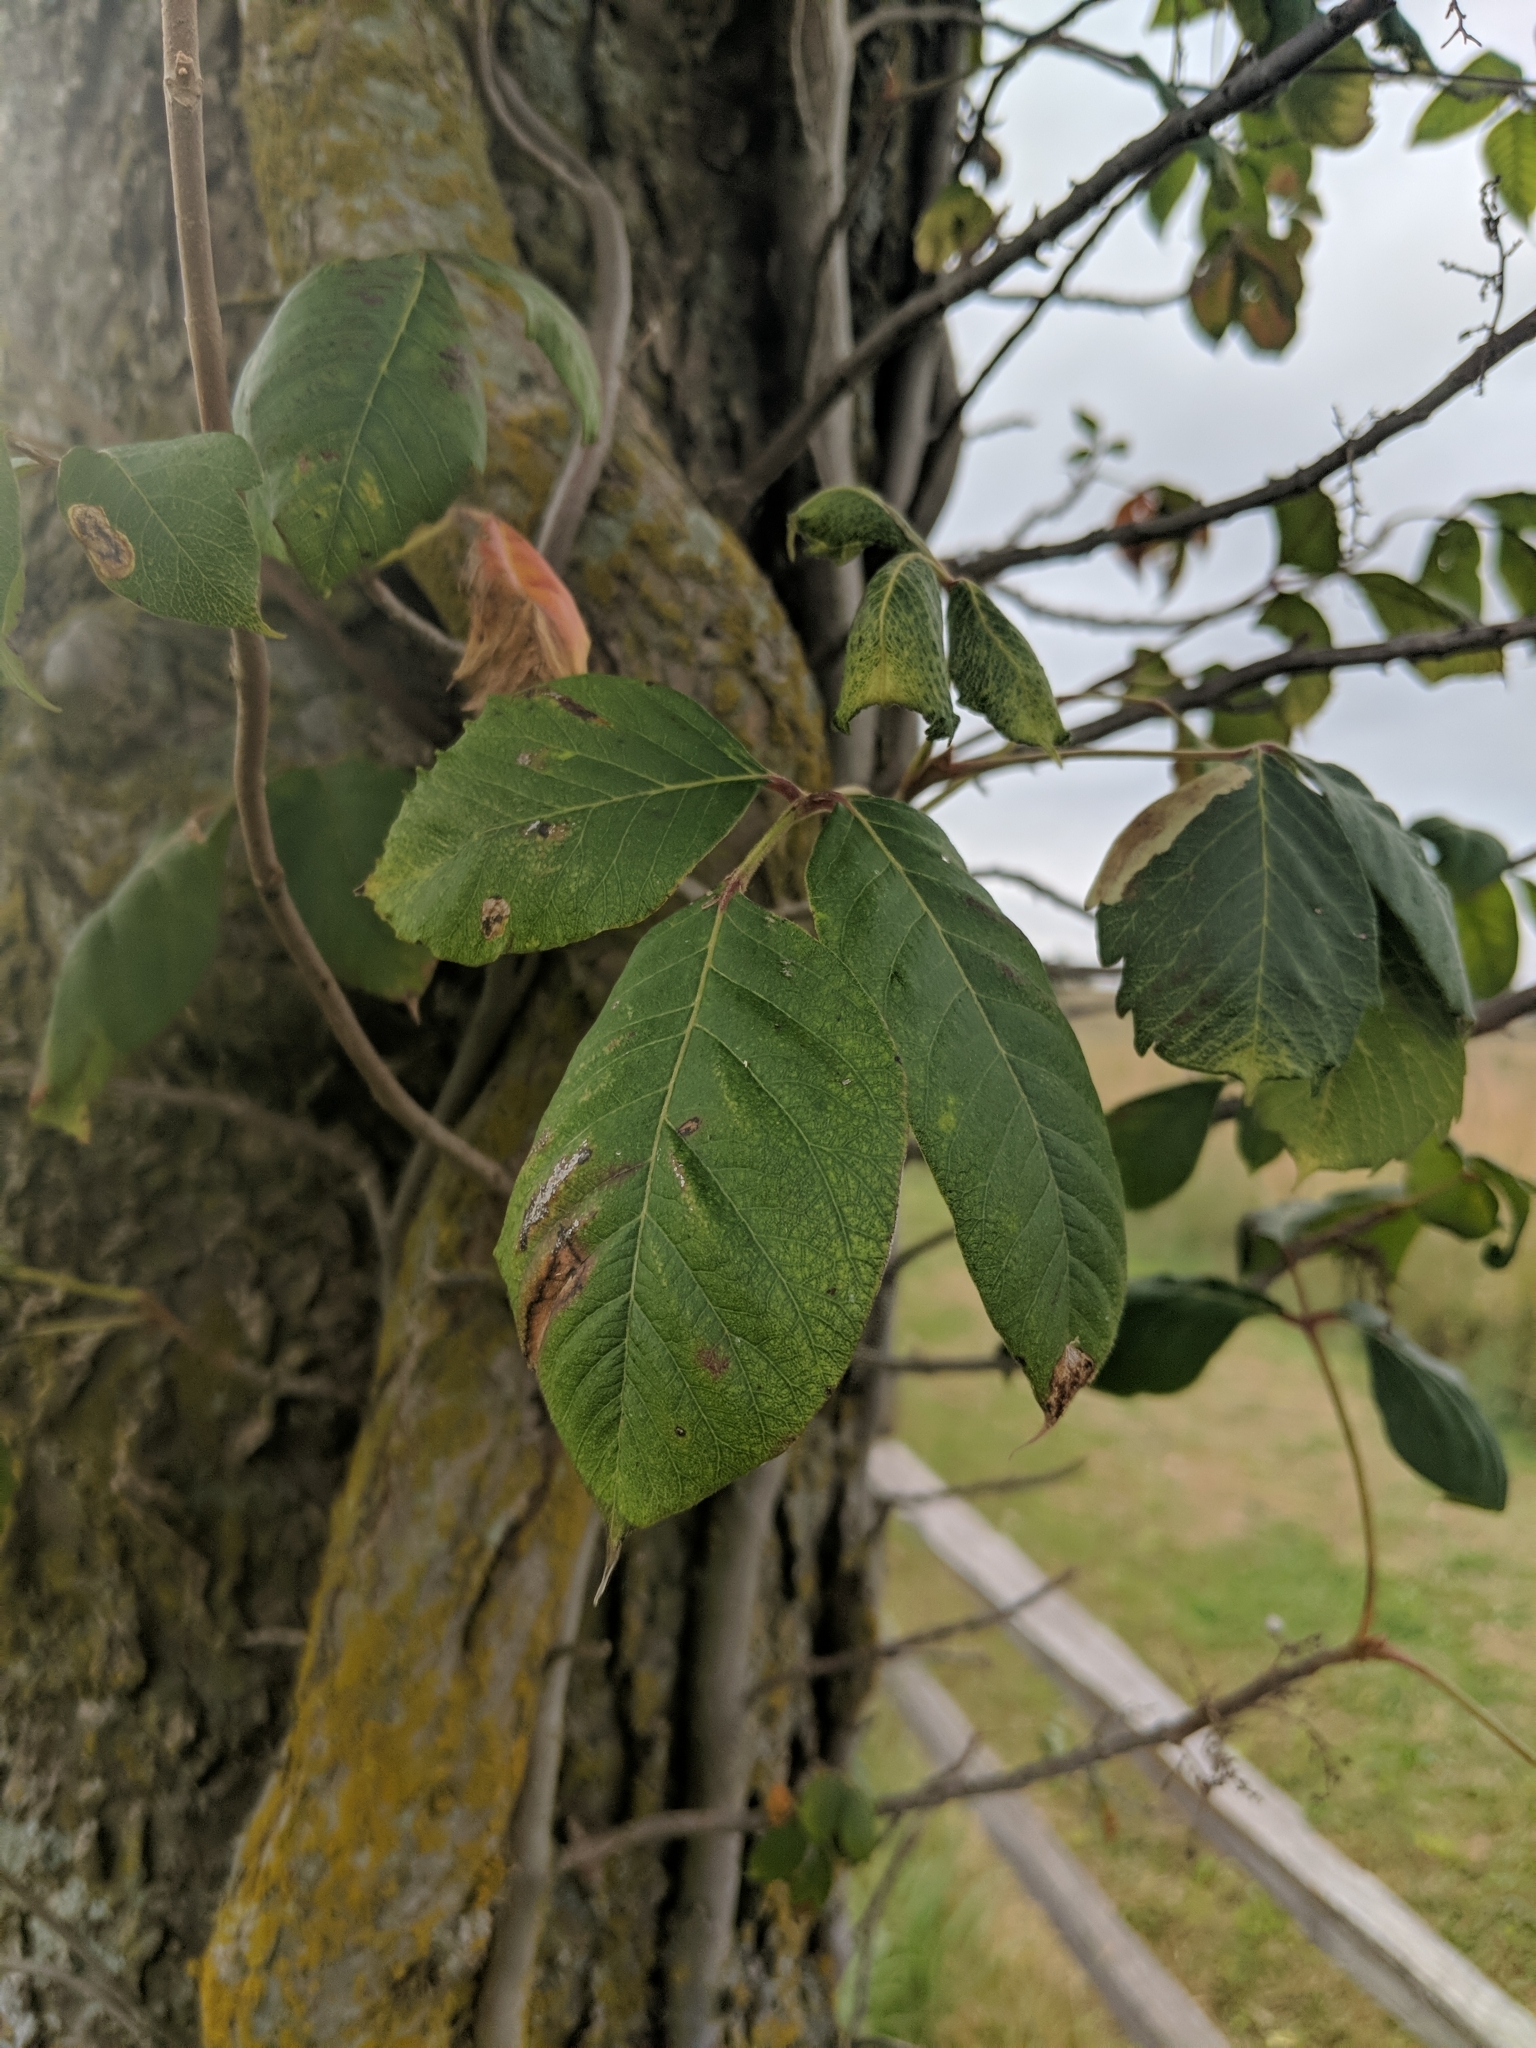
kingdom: Plantae
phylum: Tracheophyta
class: Magnoliopsida
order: Sapindales
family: Anacardiaceae
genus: Toxicodendron
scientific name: Toxicodendron radicans
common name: Poison ivy
